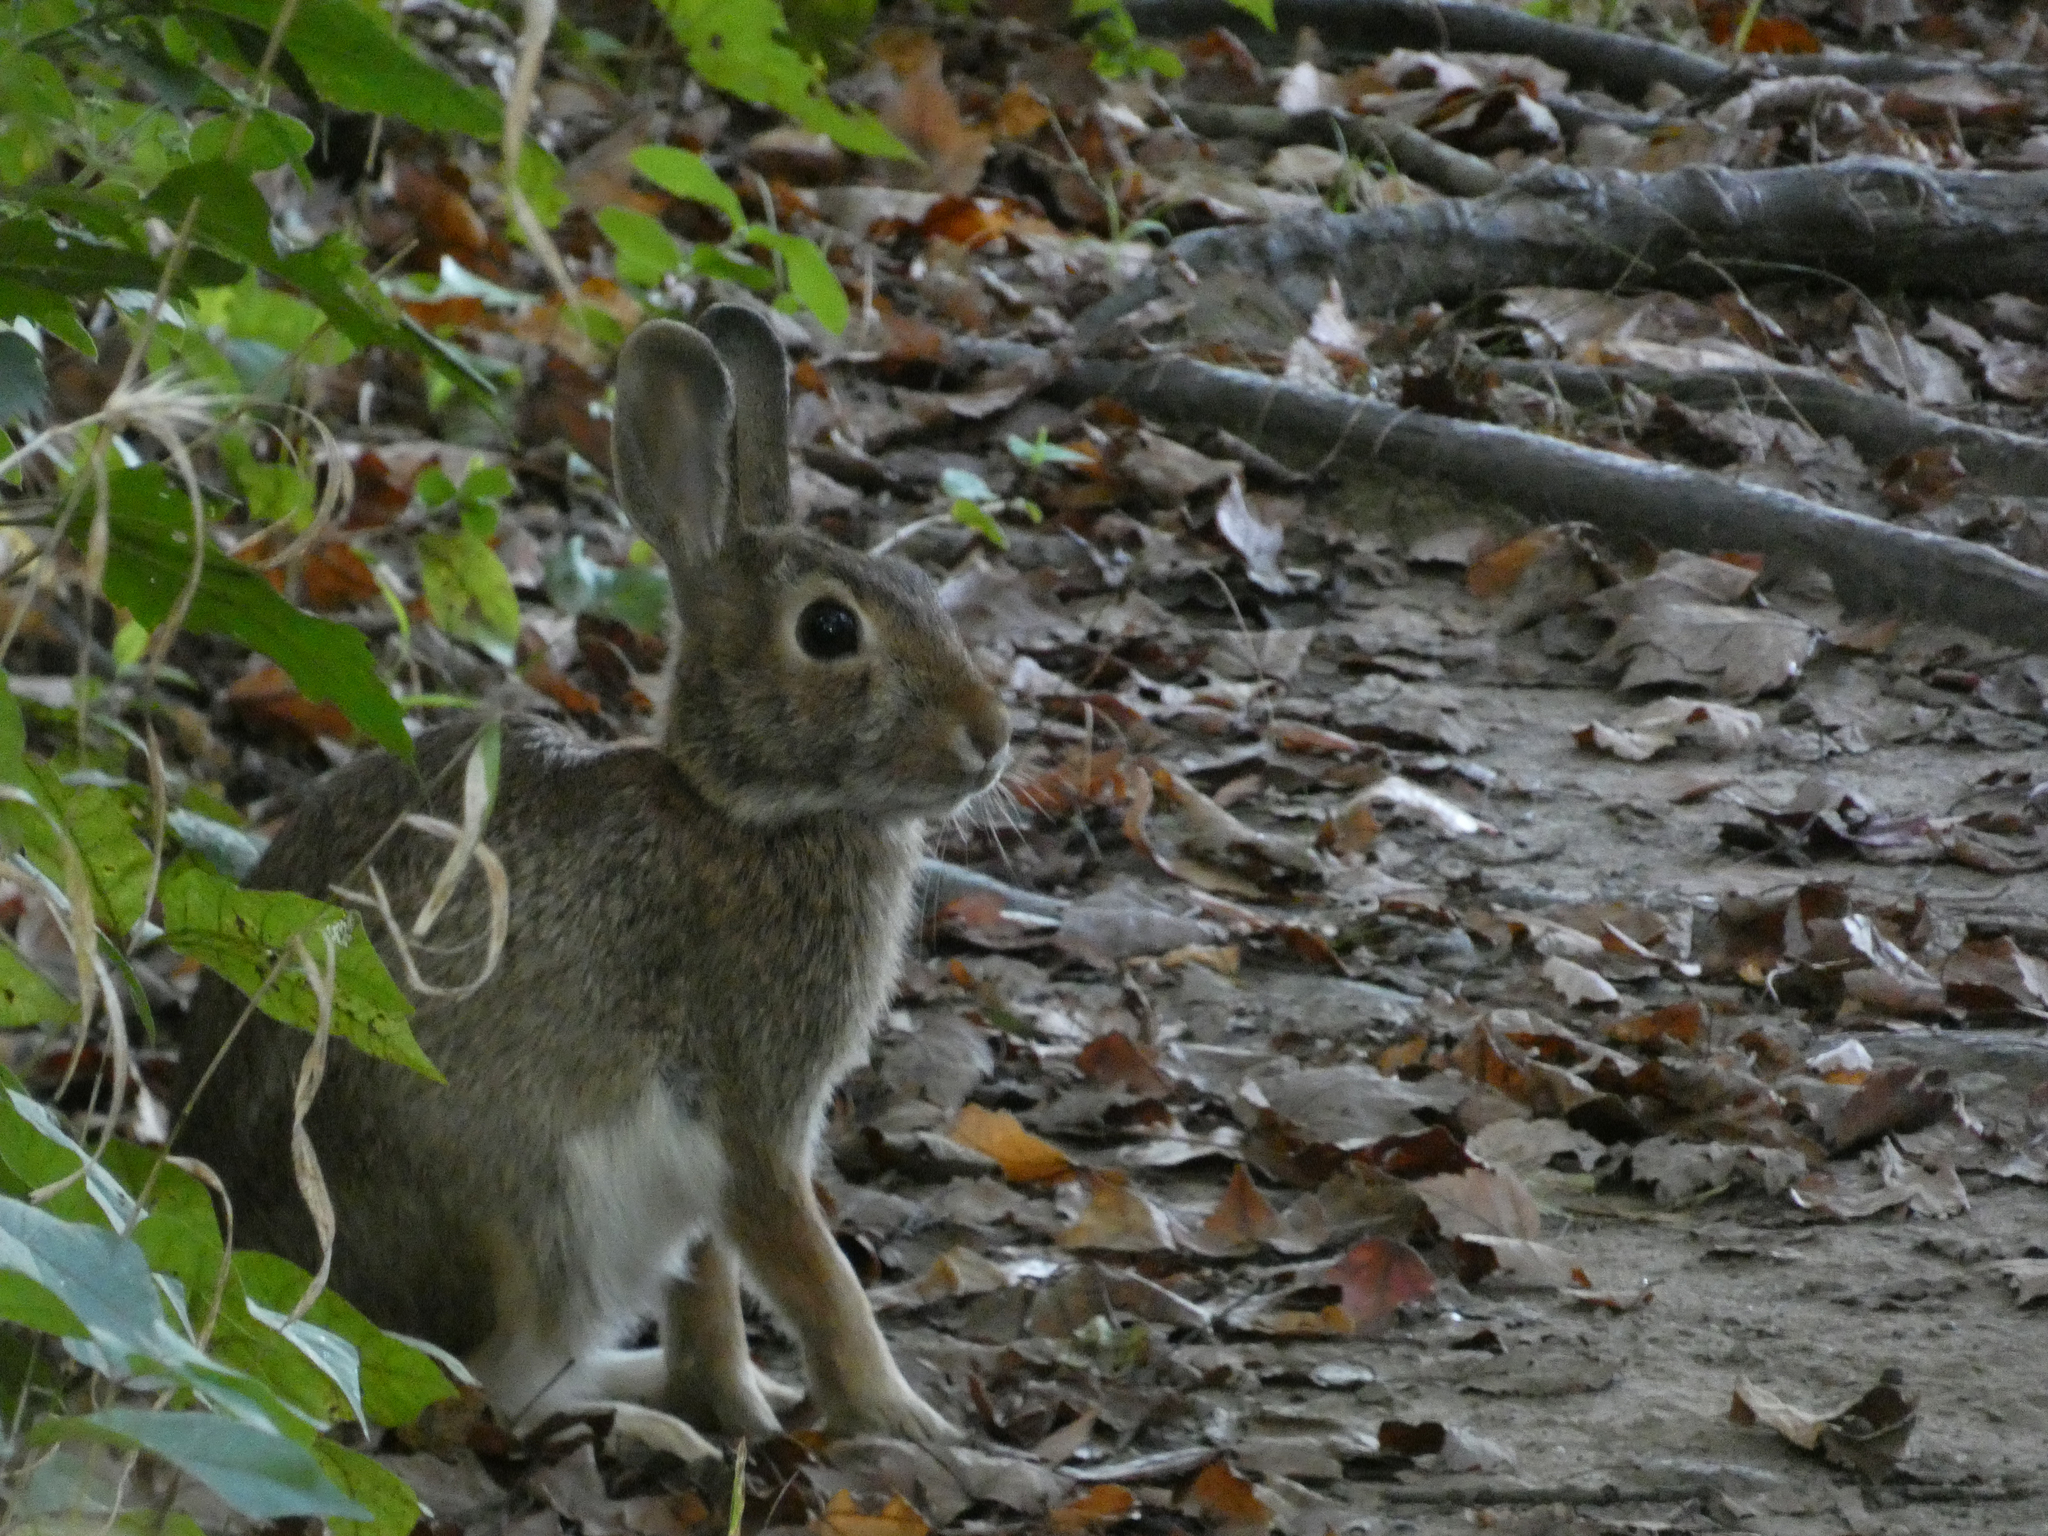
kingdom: Animalia
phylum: Chordata
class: Mammalia
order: Lagomorpha
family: Leporidae
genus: Sylvilagus
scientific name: Sylvilagus floridanus
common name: Eastern cottontail
